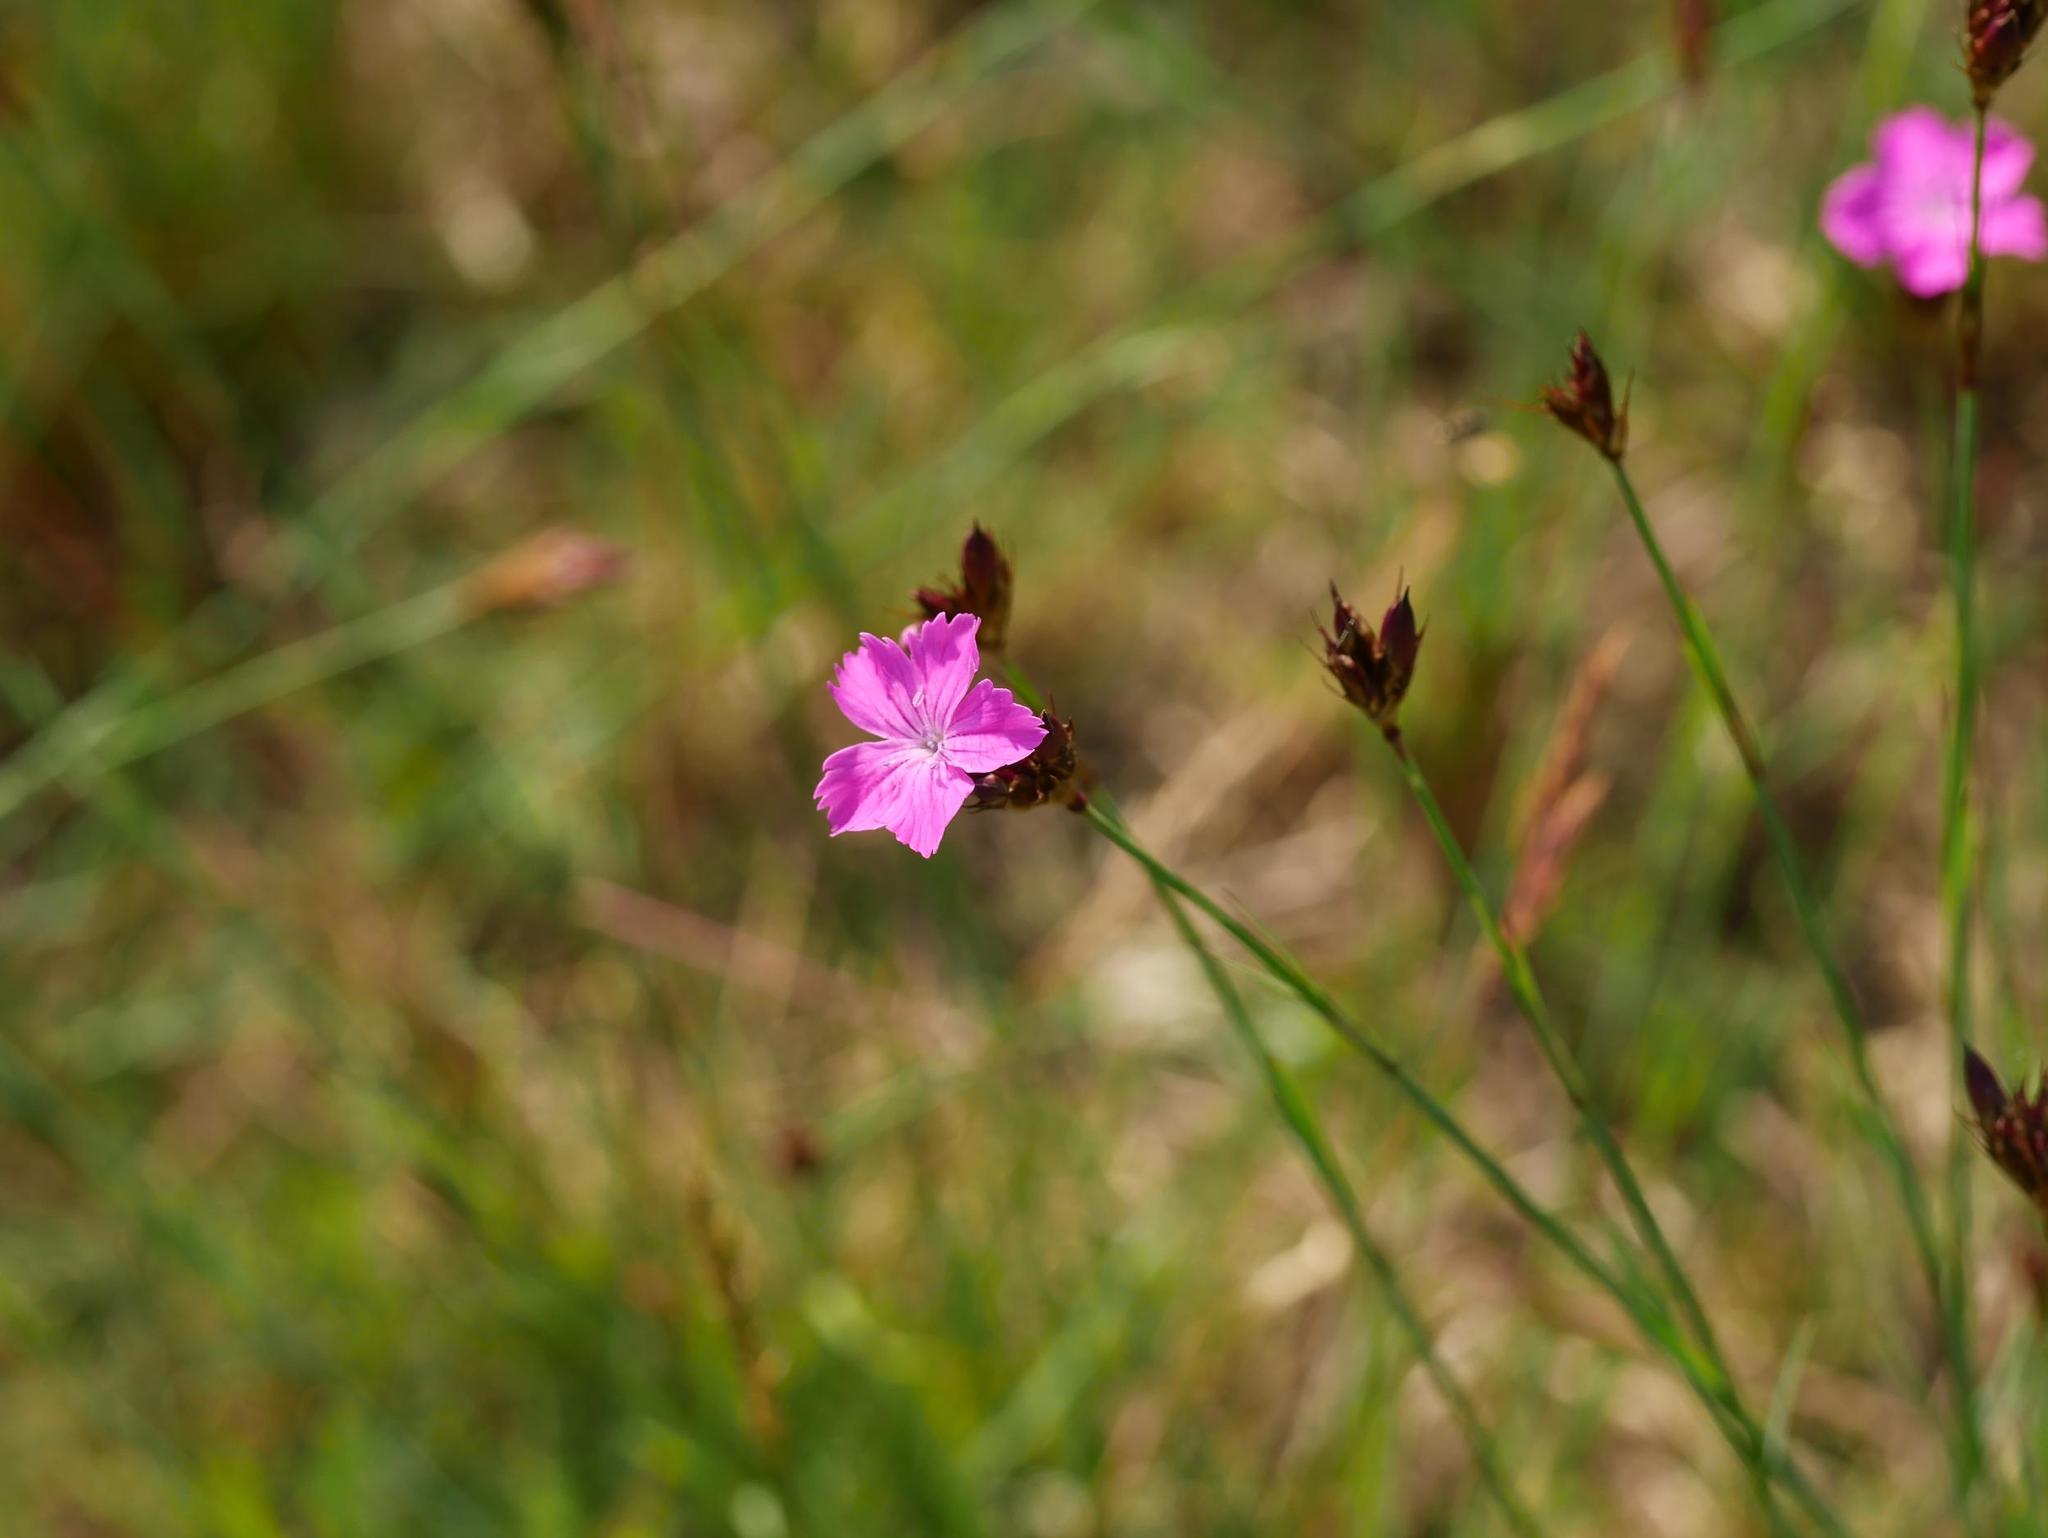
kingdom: Plantae
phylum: Tracheophyta
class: Magnoliopsida
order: Caryophyllales
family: Caryophyllaceae
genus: Dianthus
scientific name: Dianthus carthusianorum
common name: Carthusian pink
